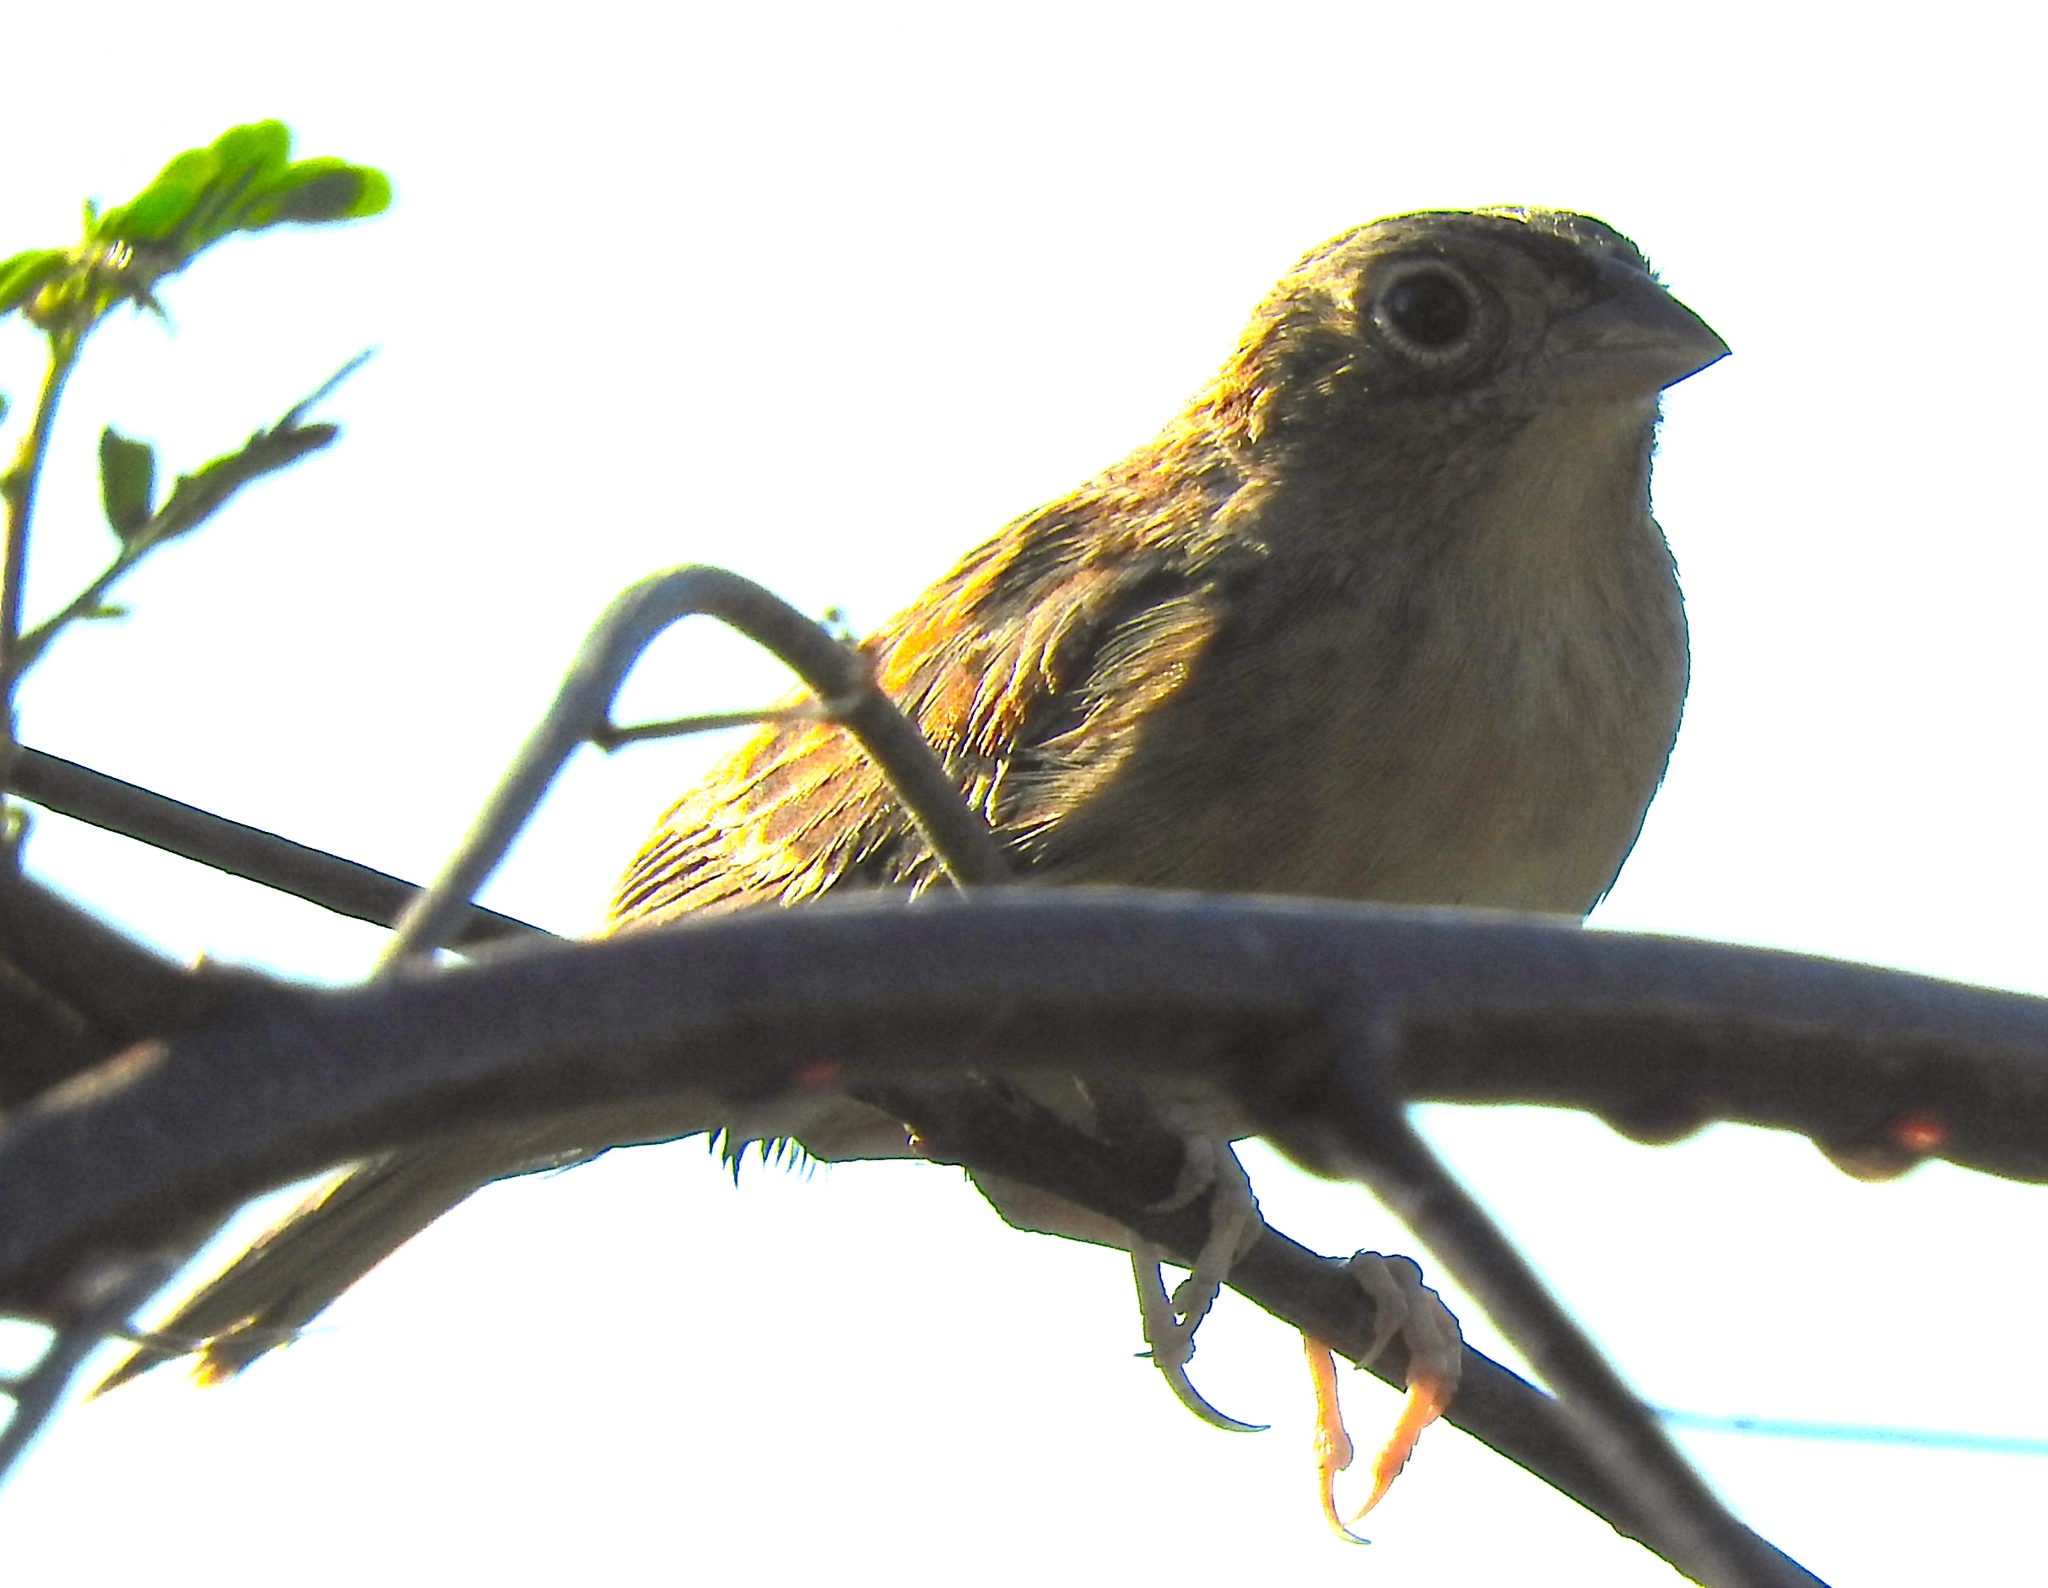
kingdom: Animalia
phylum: Chordata
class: Aves
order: Passeriformes
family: Passerellidae
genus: Ammodramus
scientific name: Ammodramus savannarum
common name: Grasshopper sparrow
